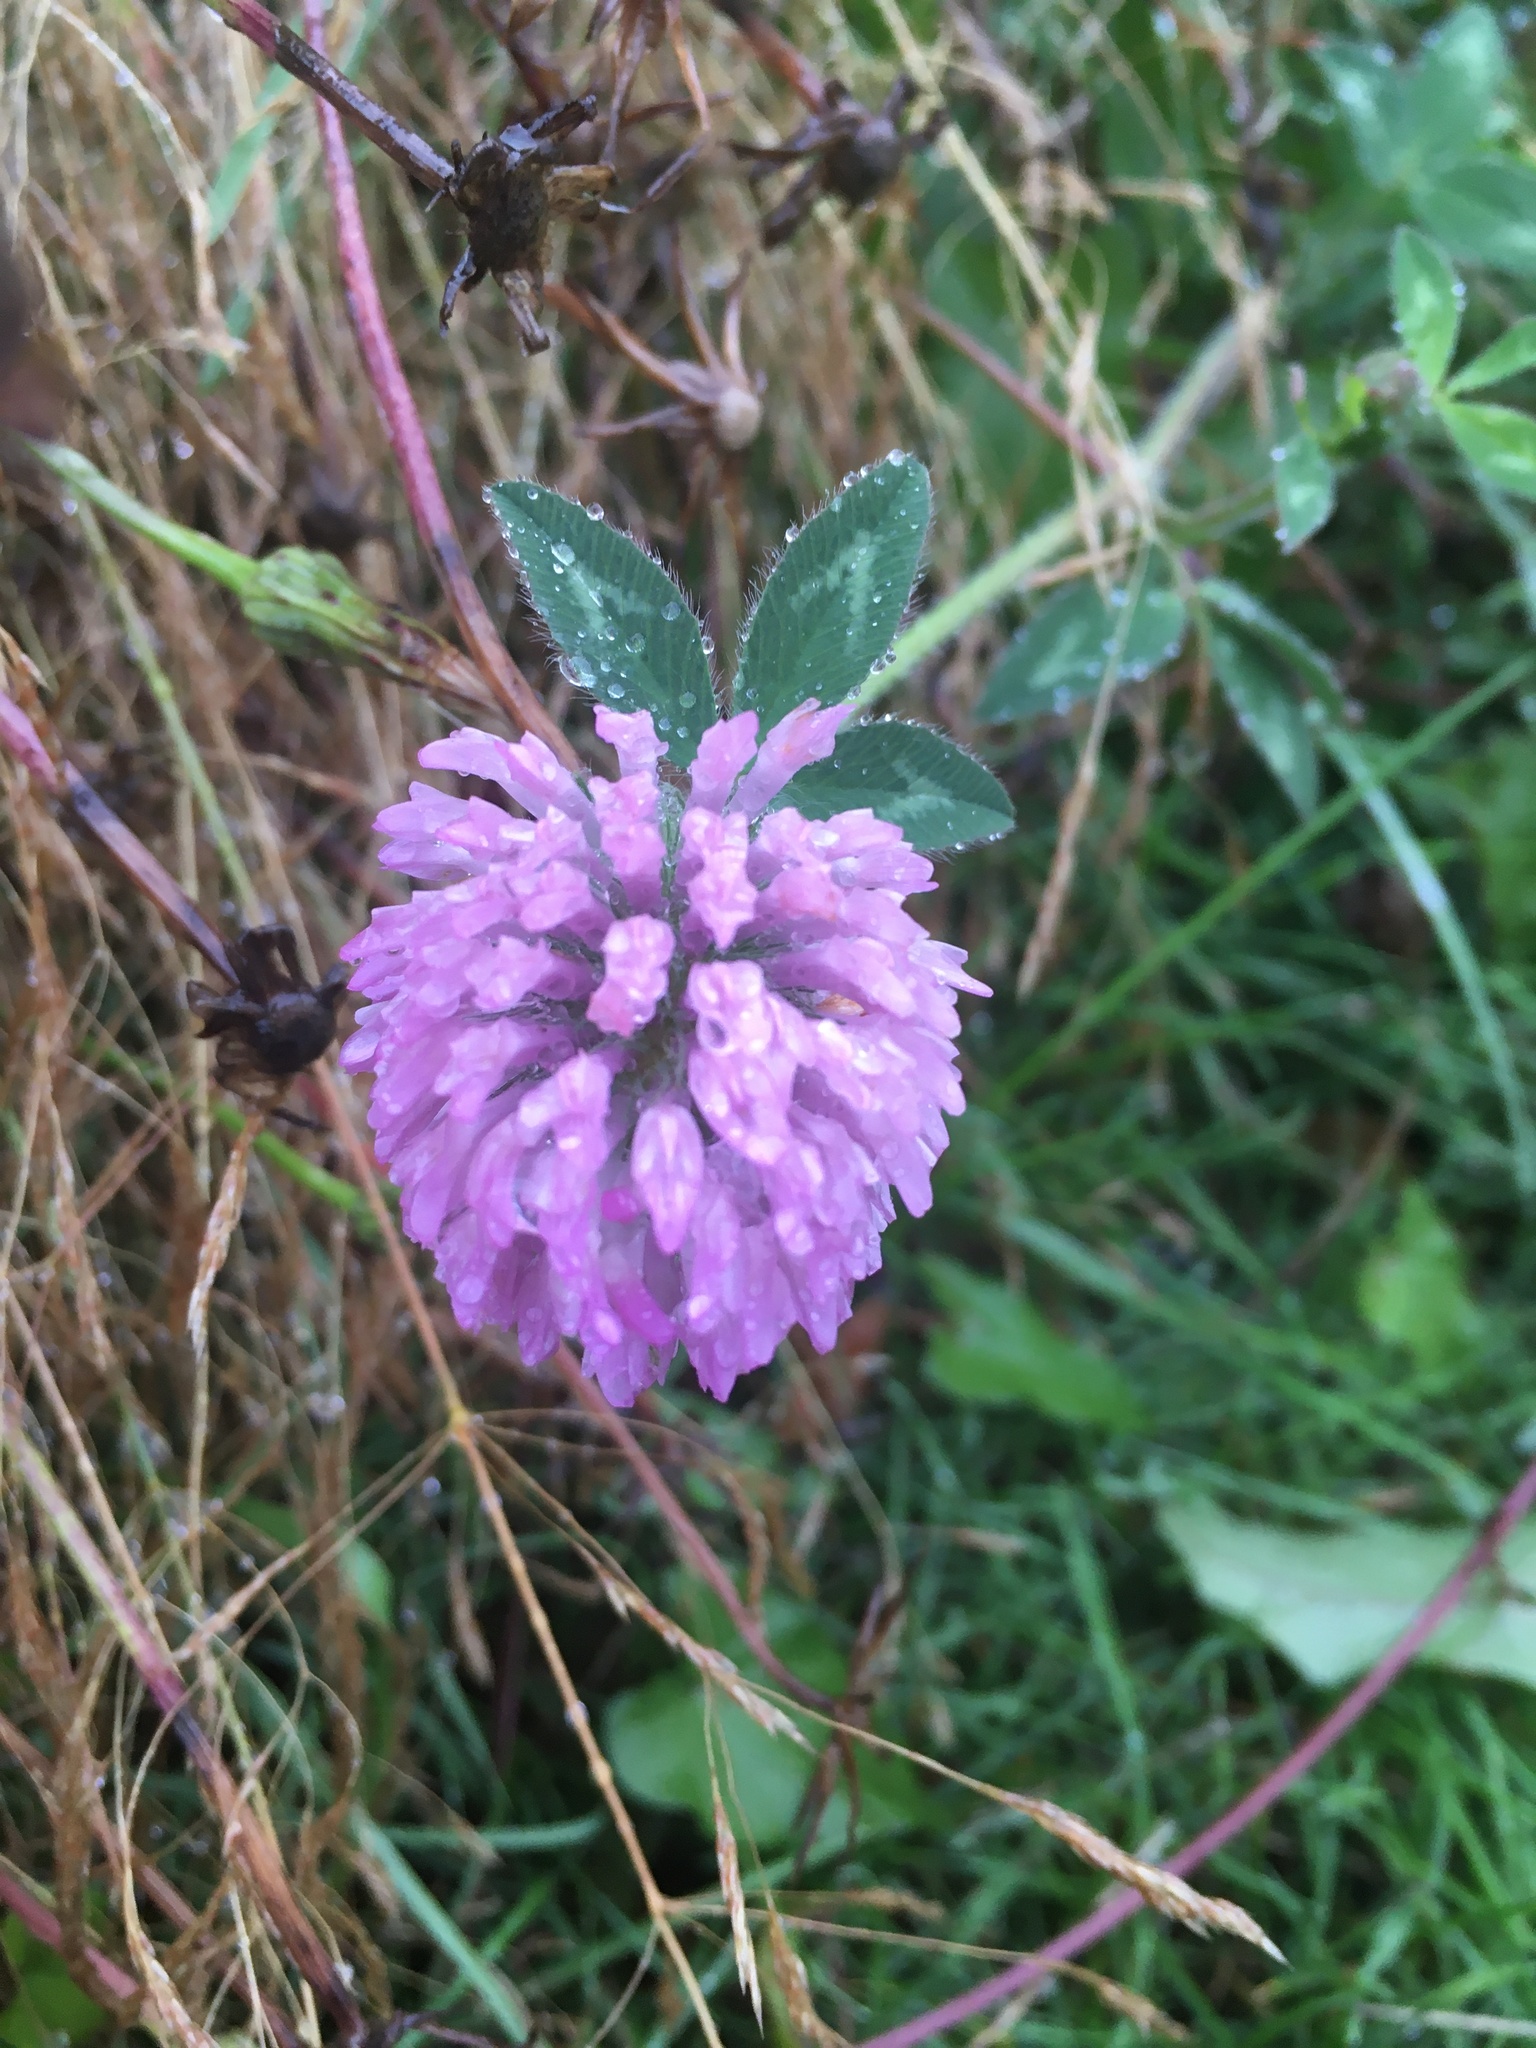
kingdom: Plantae
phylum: Tracheophyta
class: Magnoliopsida
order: Fabales
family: Fabaceae
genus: Trifolium
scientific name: Trifolium pratense
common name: Red clover
